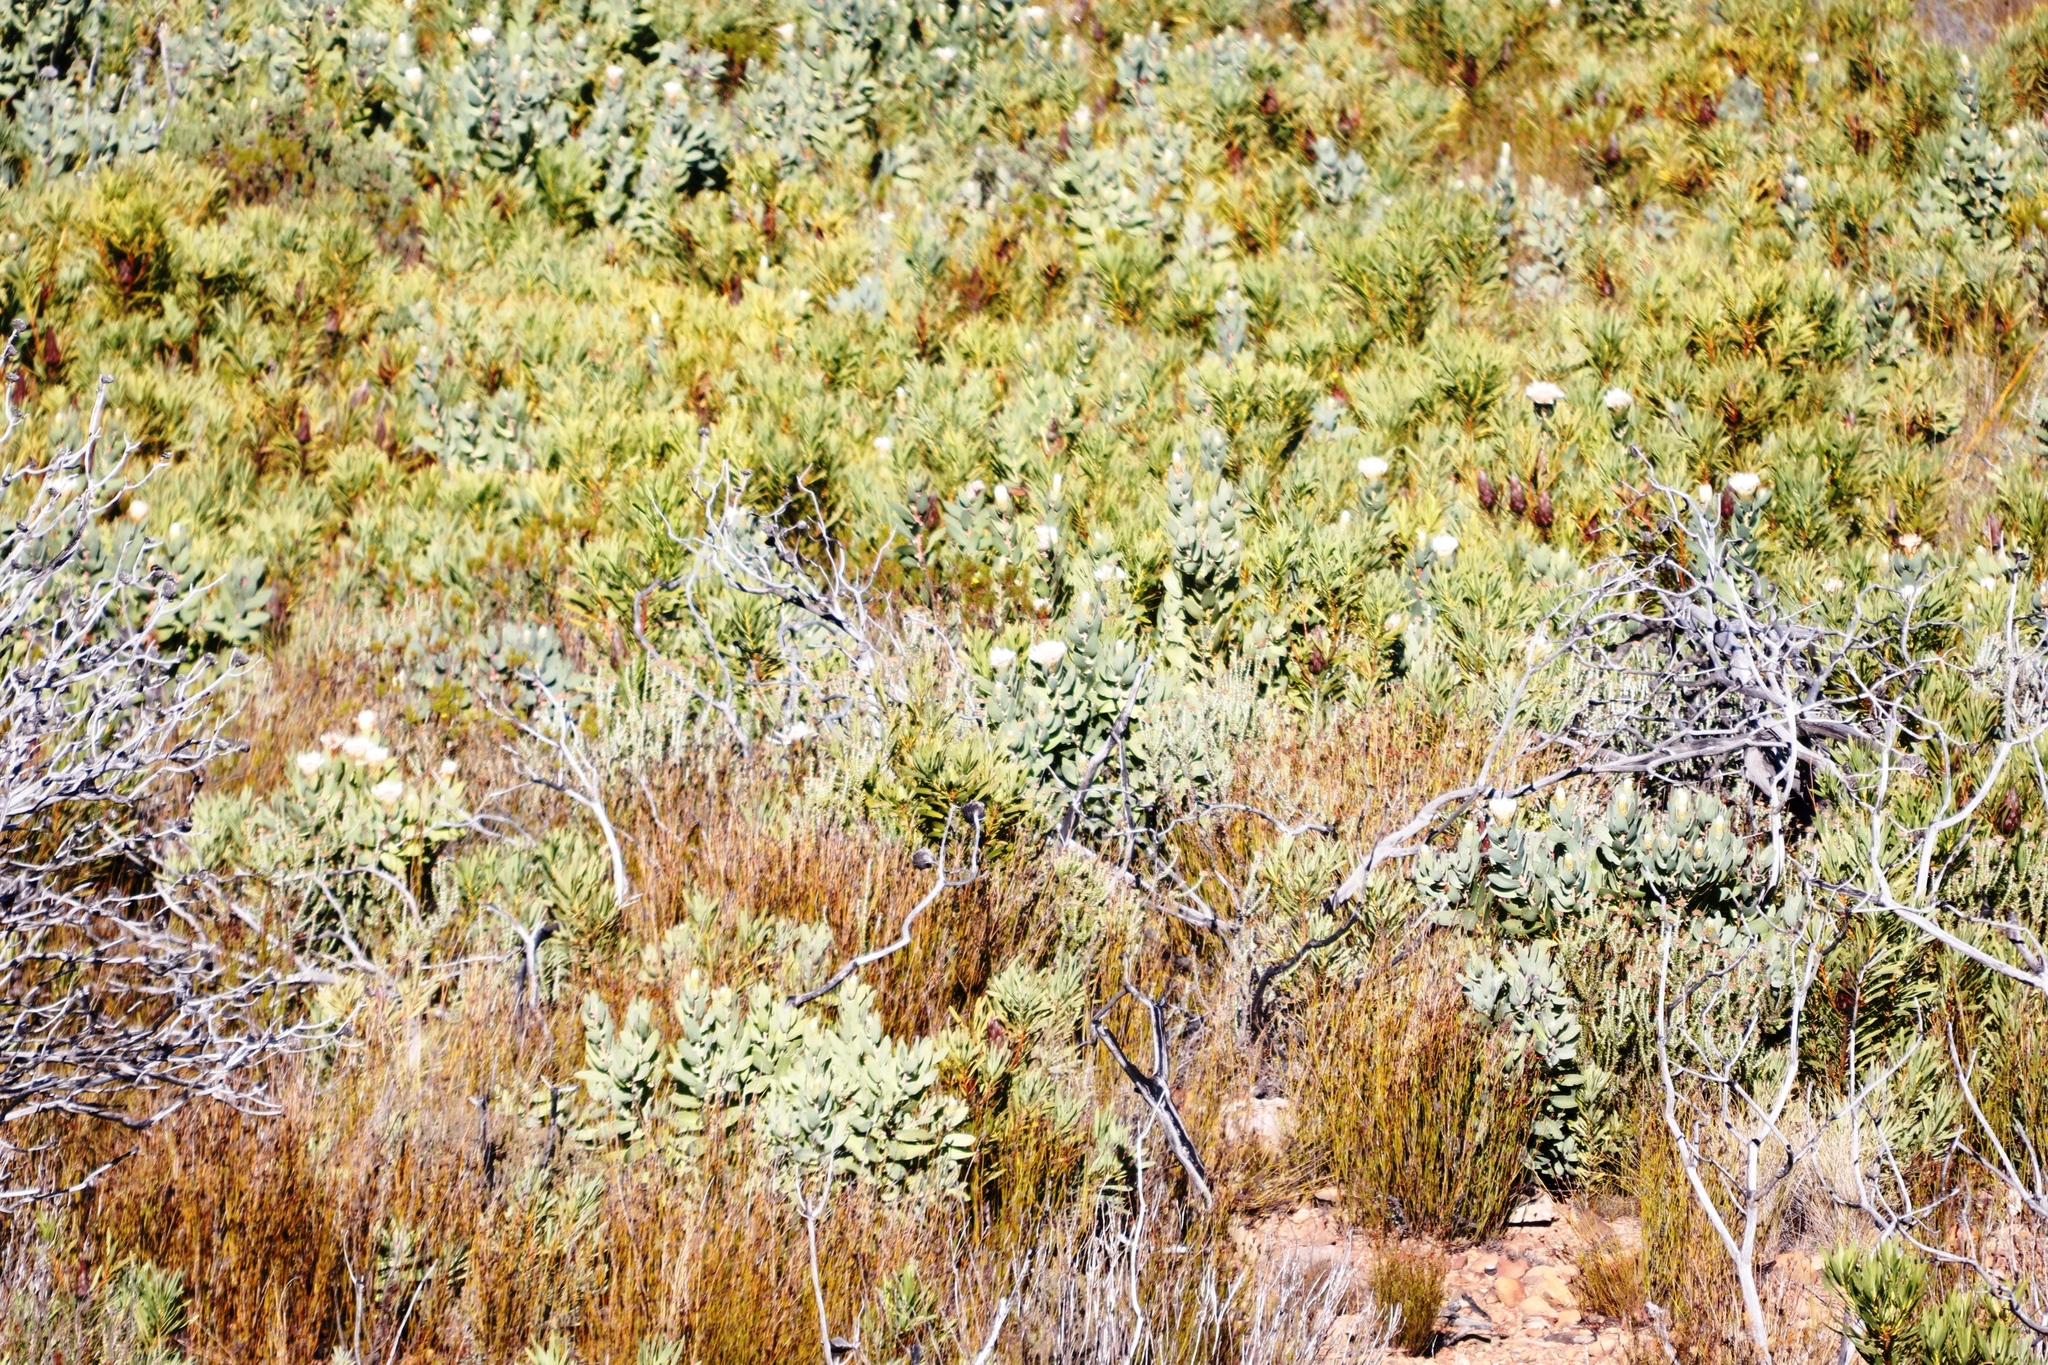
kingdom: Plantae
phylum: Tracheophyta
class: Magnoliopsida
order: Proteales
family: Proteaceae
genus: Protea
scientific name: Protea lacticolor
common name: Hottentot sugarbush
